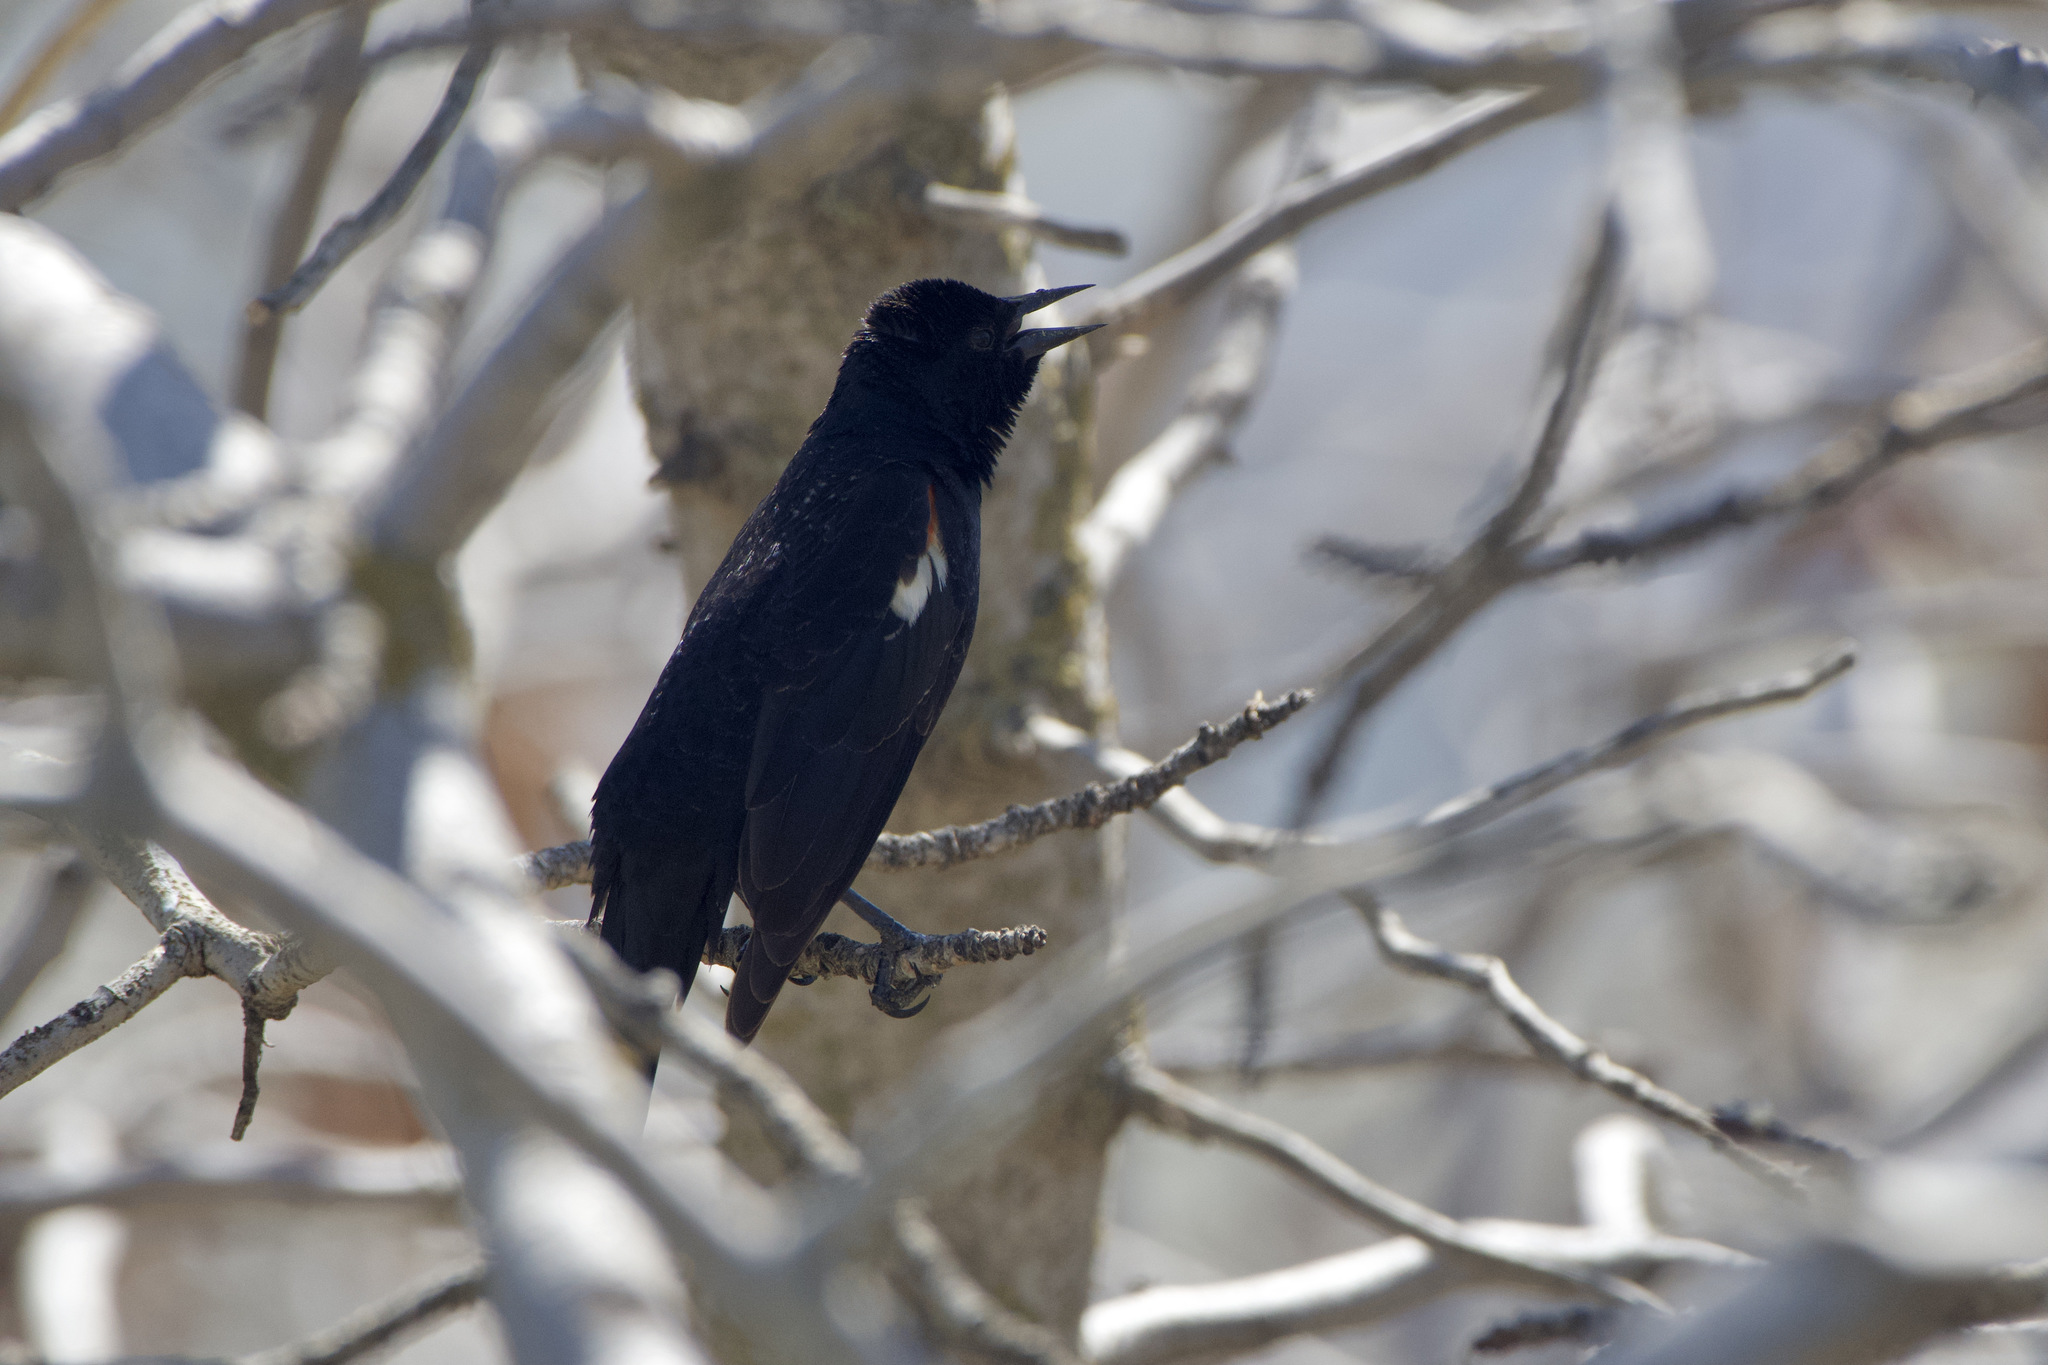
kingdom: Animalia
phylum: Chordata
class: Aves
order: Passeriformes
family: Icteridae
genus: Agelaius
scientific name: Agelaius tricolor
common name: Tricolored blackbird
